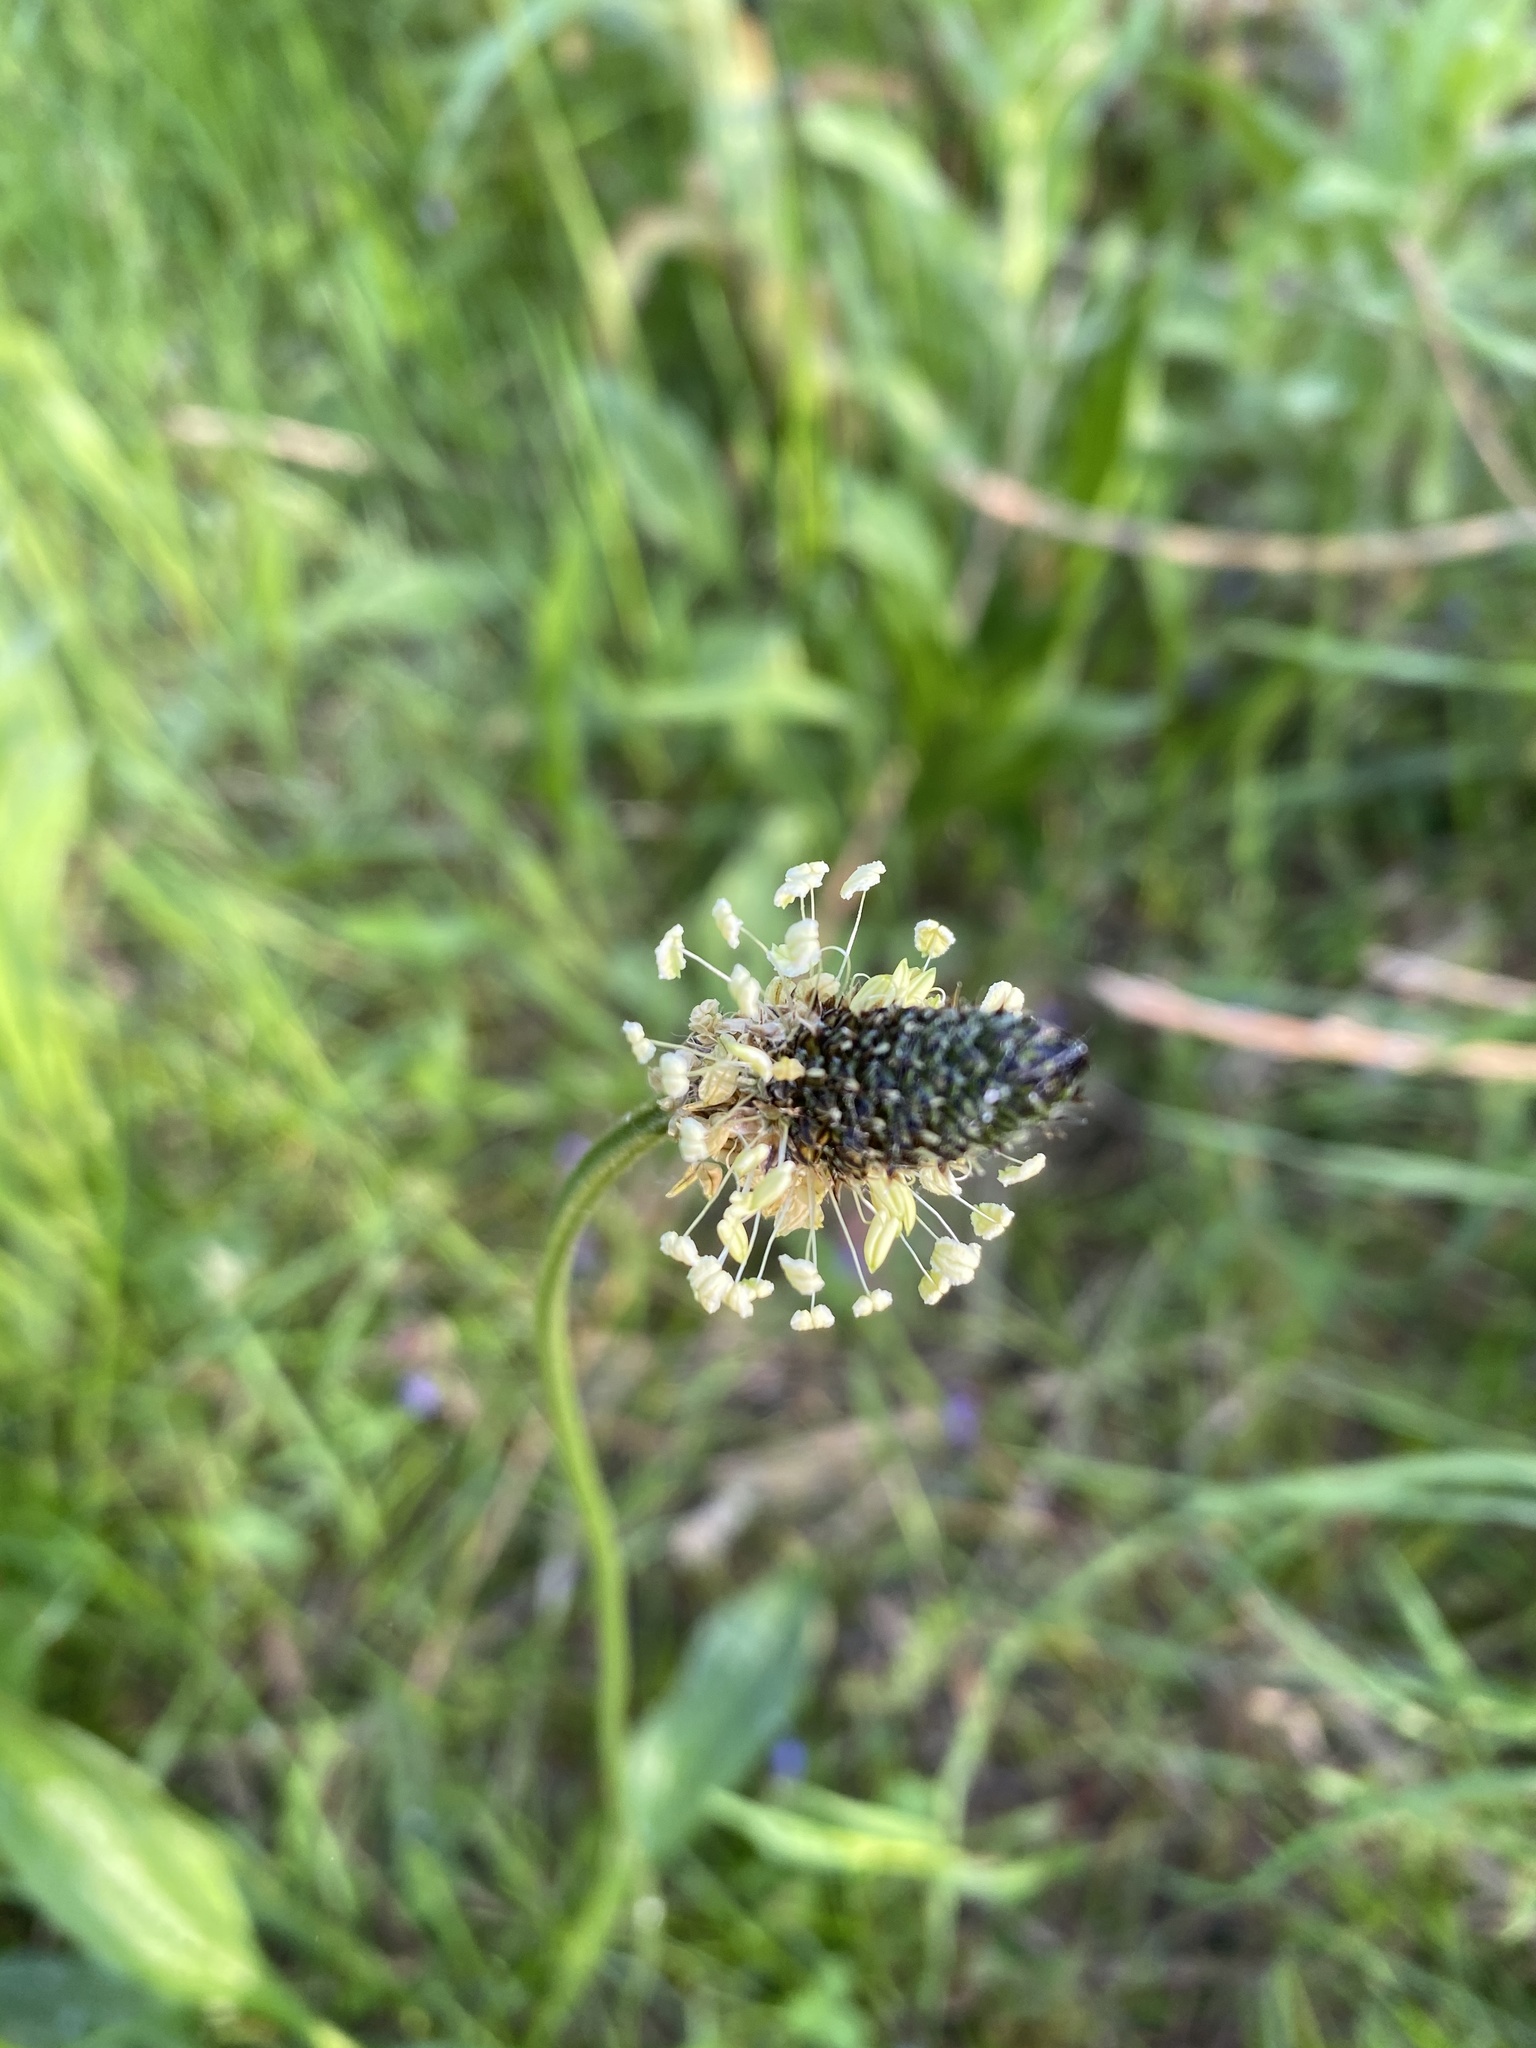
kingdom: Plantae
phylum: Tracheophyta
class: Magnoliopsida
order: Lamiales
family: Plantaginaceae
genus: Plantago
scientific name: Plantago lanceolata
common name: Ribwort plantain
